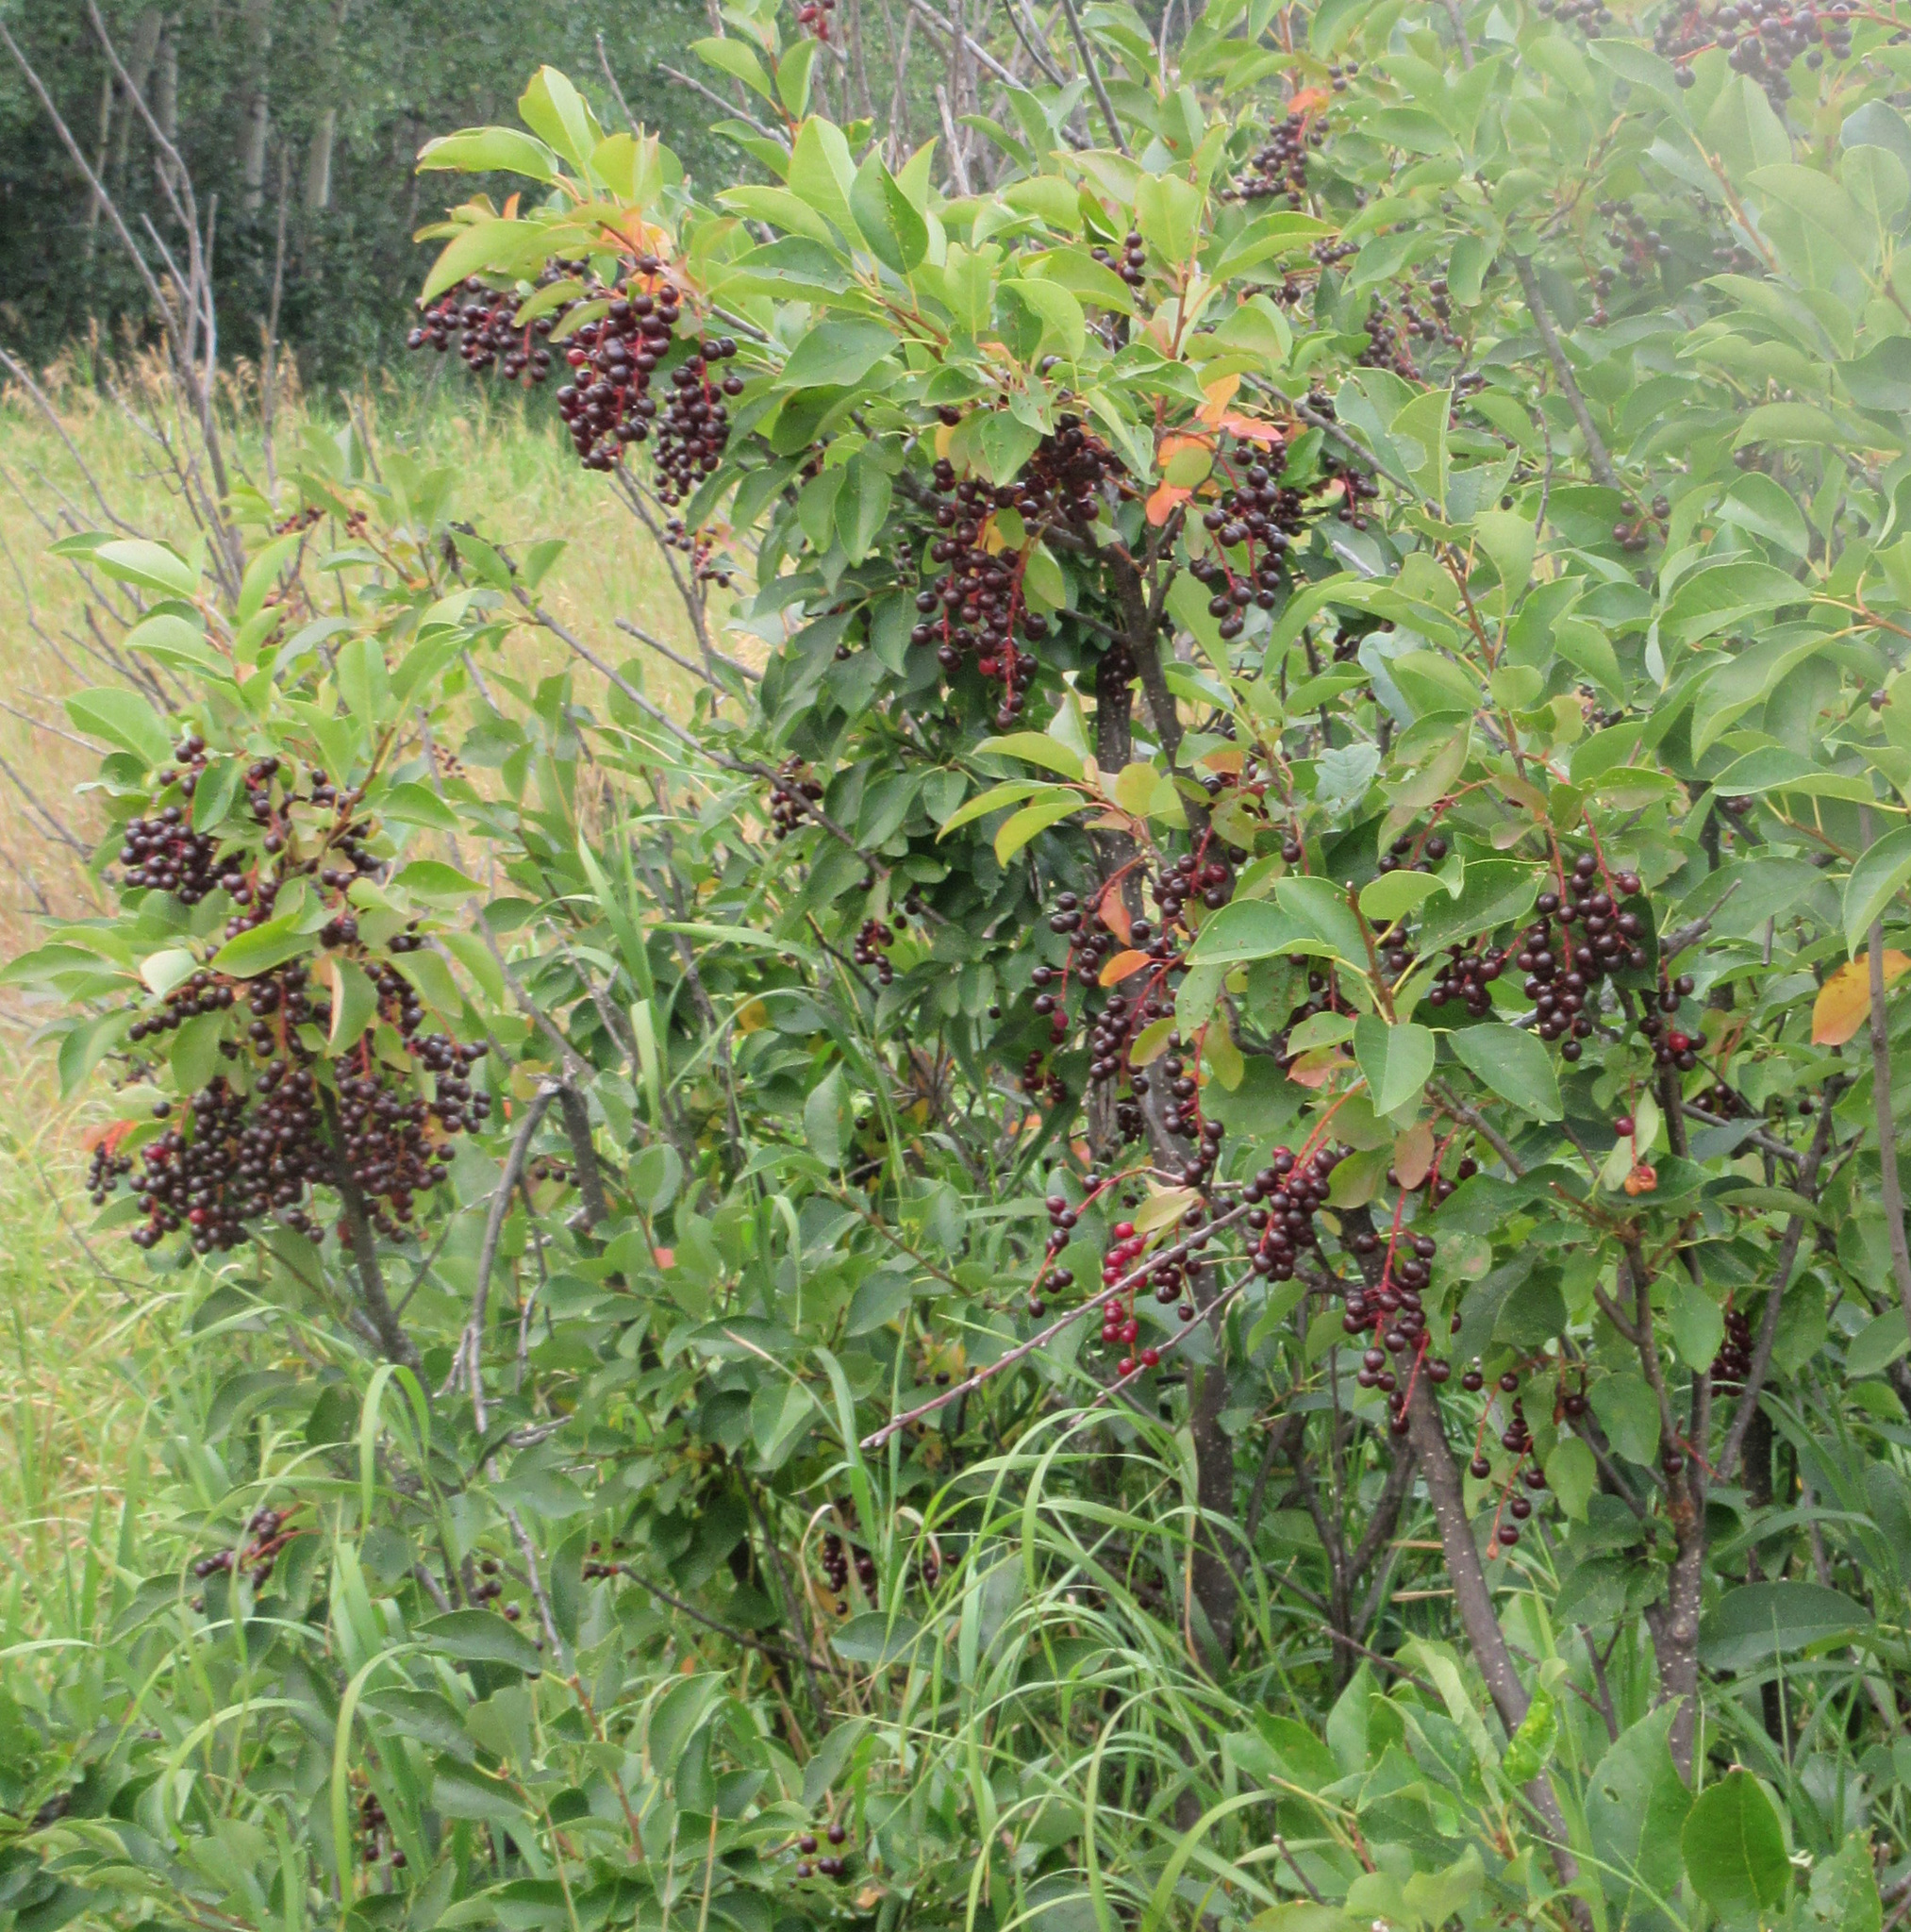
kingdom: Plantae
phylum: Tracheophyta
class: Magnoliopsida
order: Rosales
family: Rosaceae
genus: Prunus
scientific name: Prunus virginiana
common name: Chokecherry
